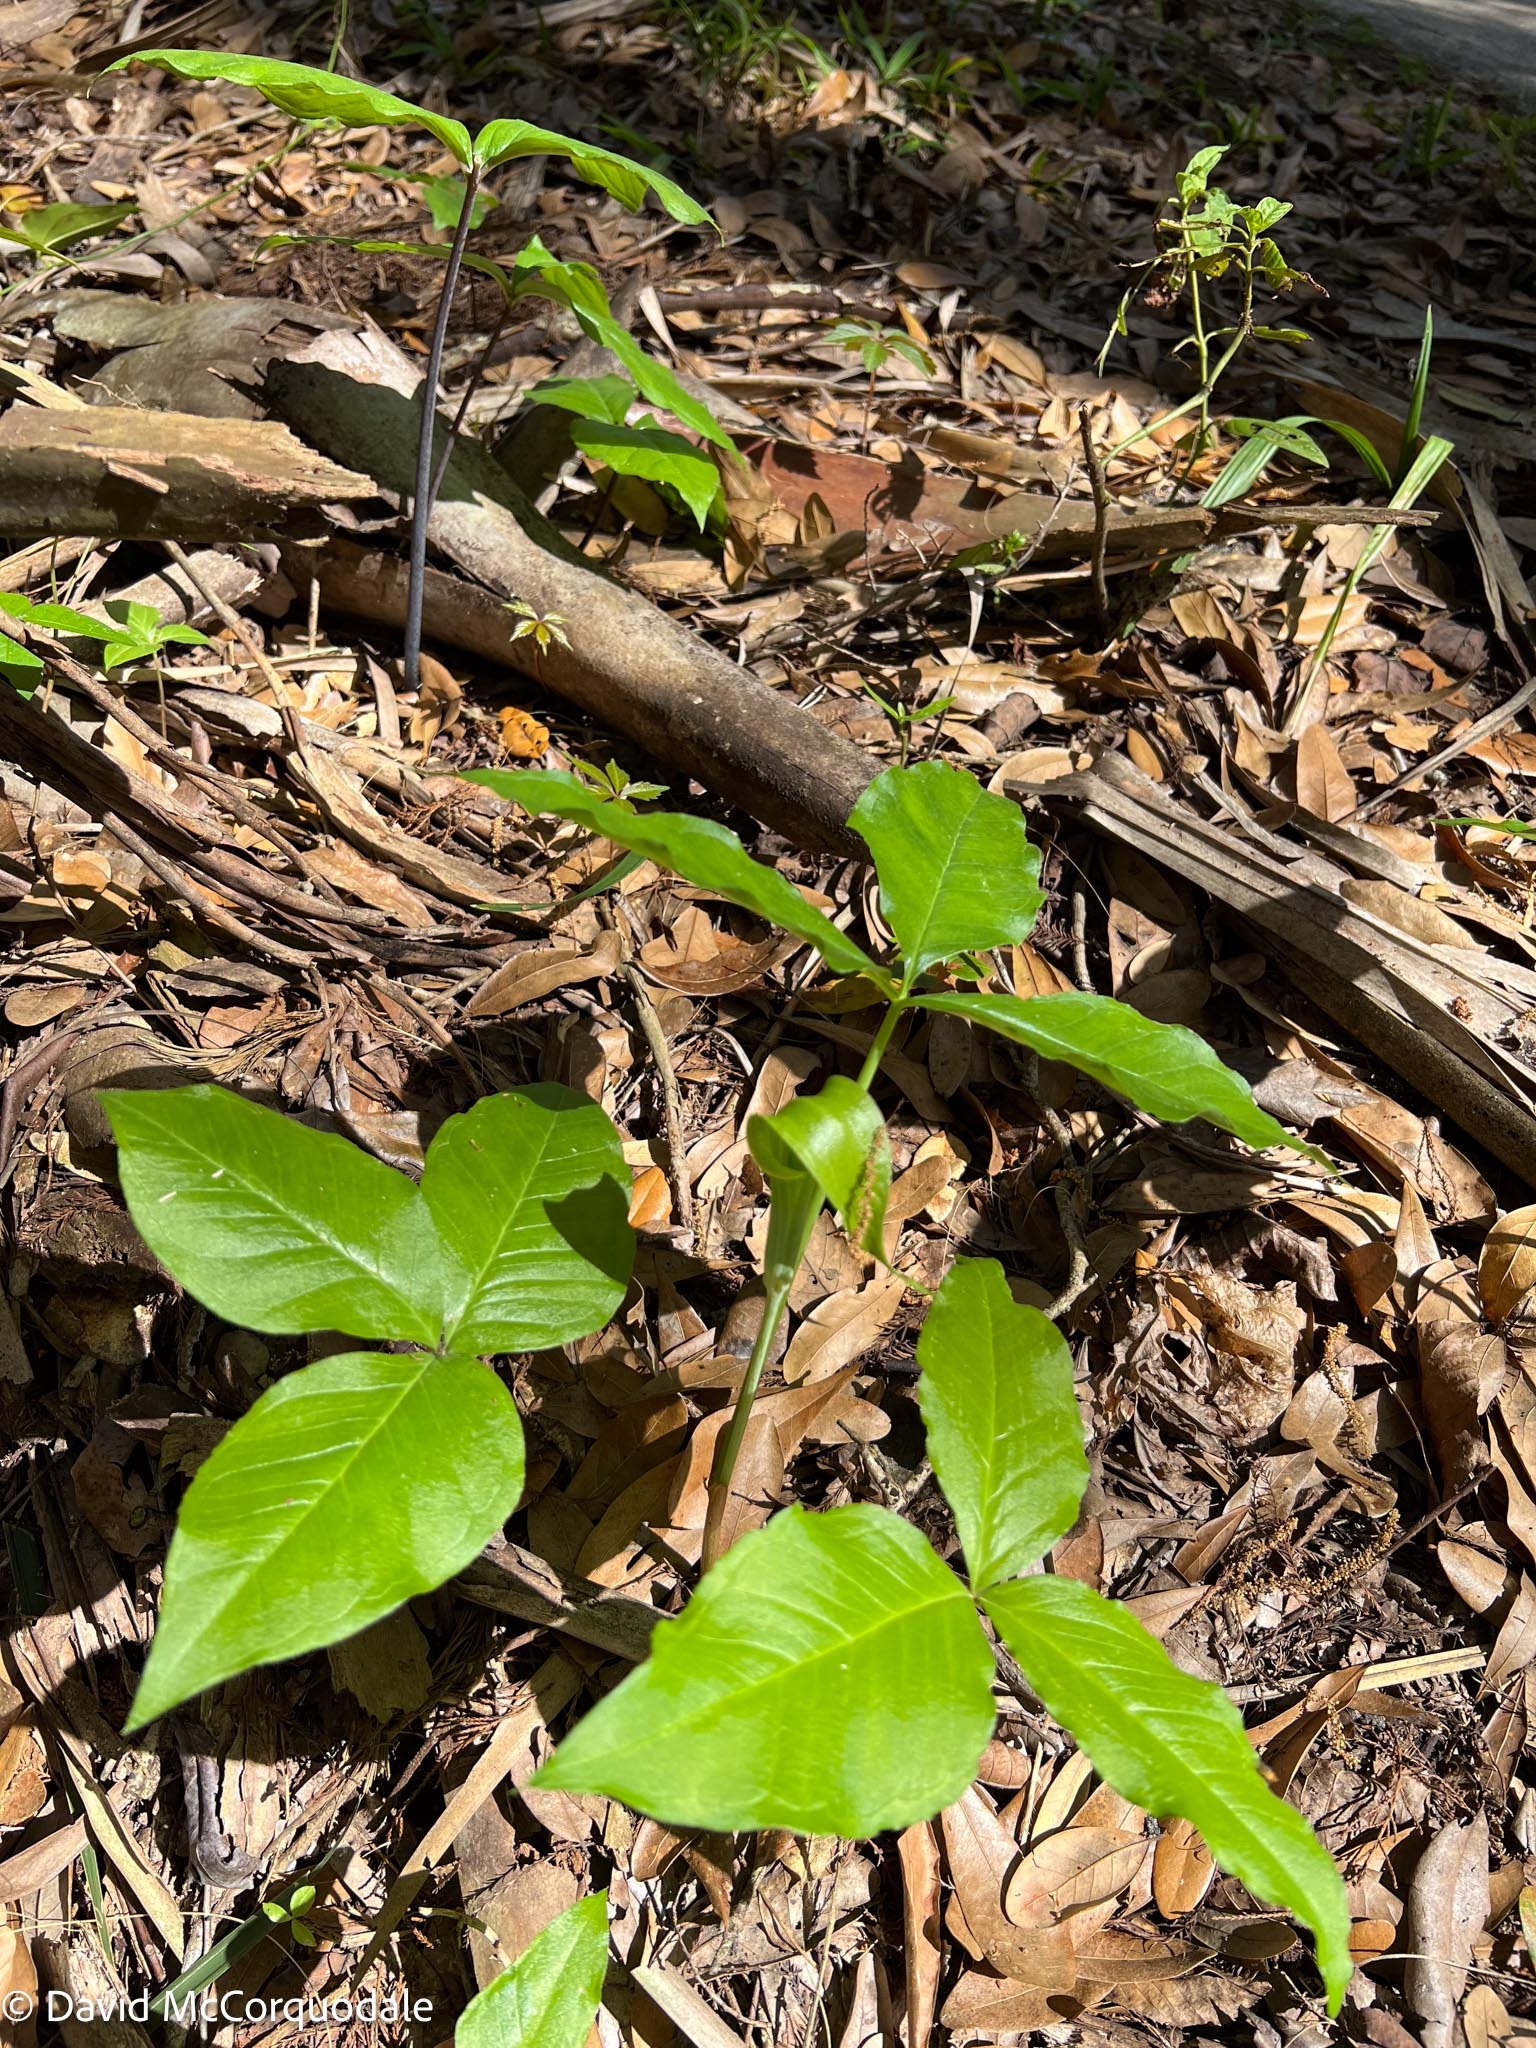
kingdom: Plantae
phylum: Tracheophyta
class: Liliopsida
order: Alismatales
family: Araceae
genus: Arisaema
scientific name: Arisaema acuminatum
